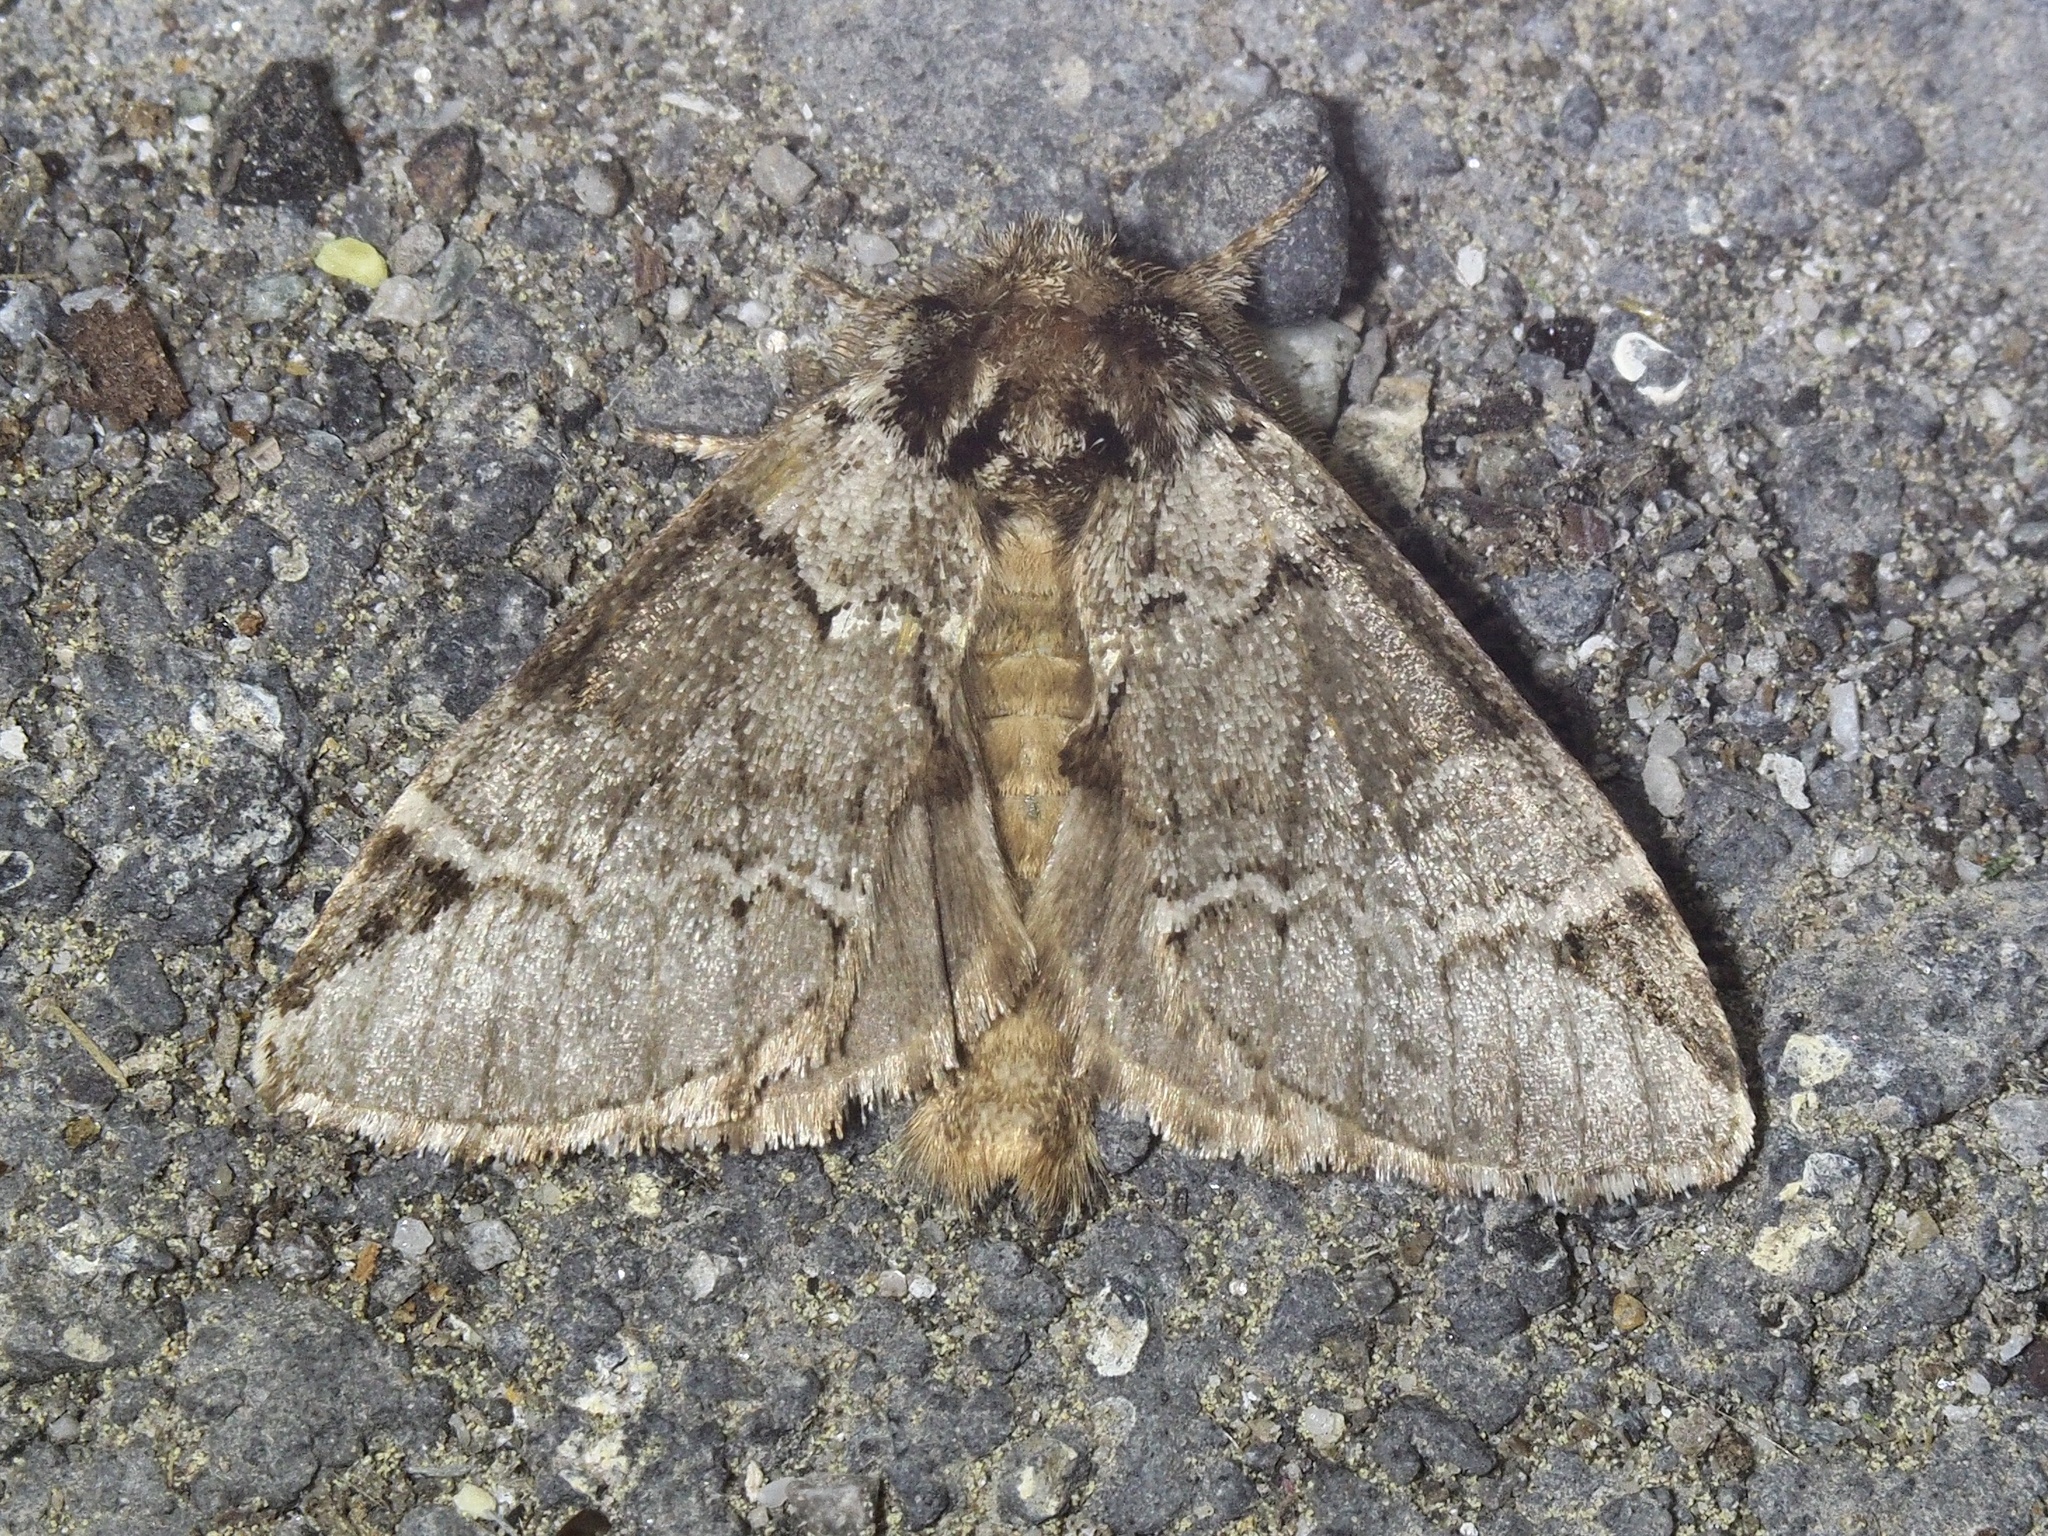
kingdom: Animalia
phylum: Arthropoda
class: Insecta
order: Lepidoptera
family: Notodontidae
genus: Drymonia
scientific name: Drymonia obliterata
